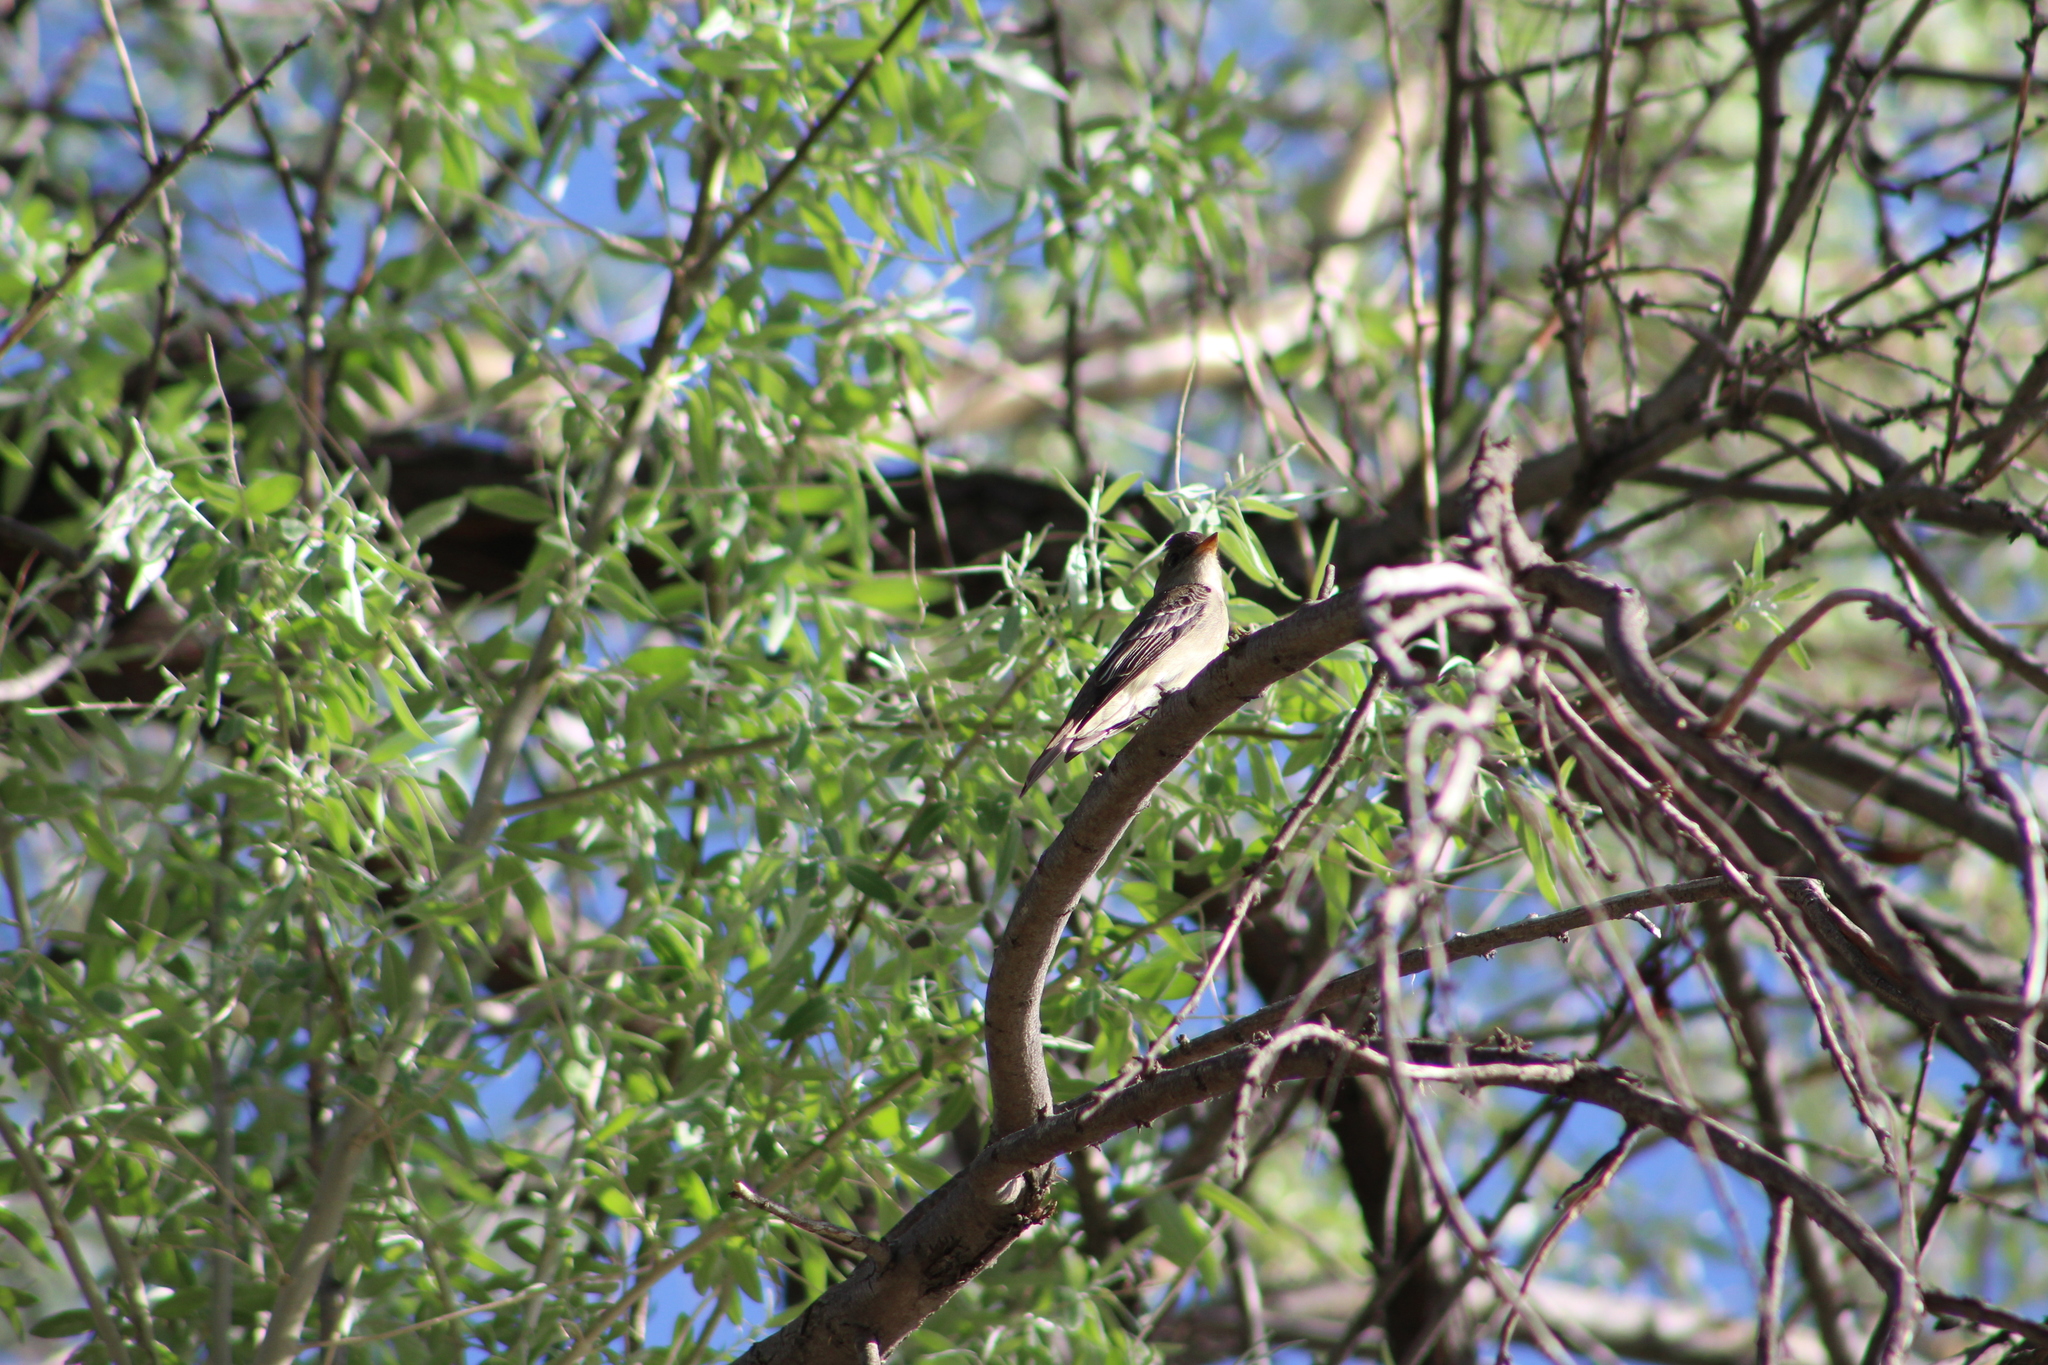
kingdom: Animalia
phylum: Chordata
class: Aves
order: Passeriformes
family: Tyrannidae
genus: Contopus
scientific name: Contopus cooperi
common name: Olive-sided flycatcher
